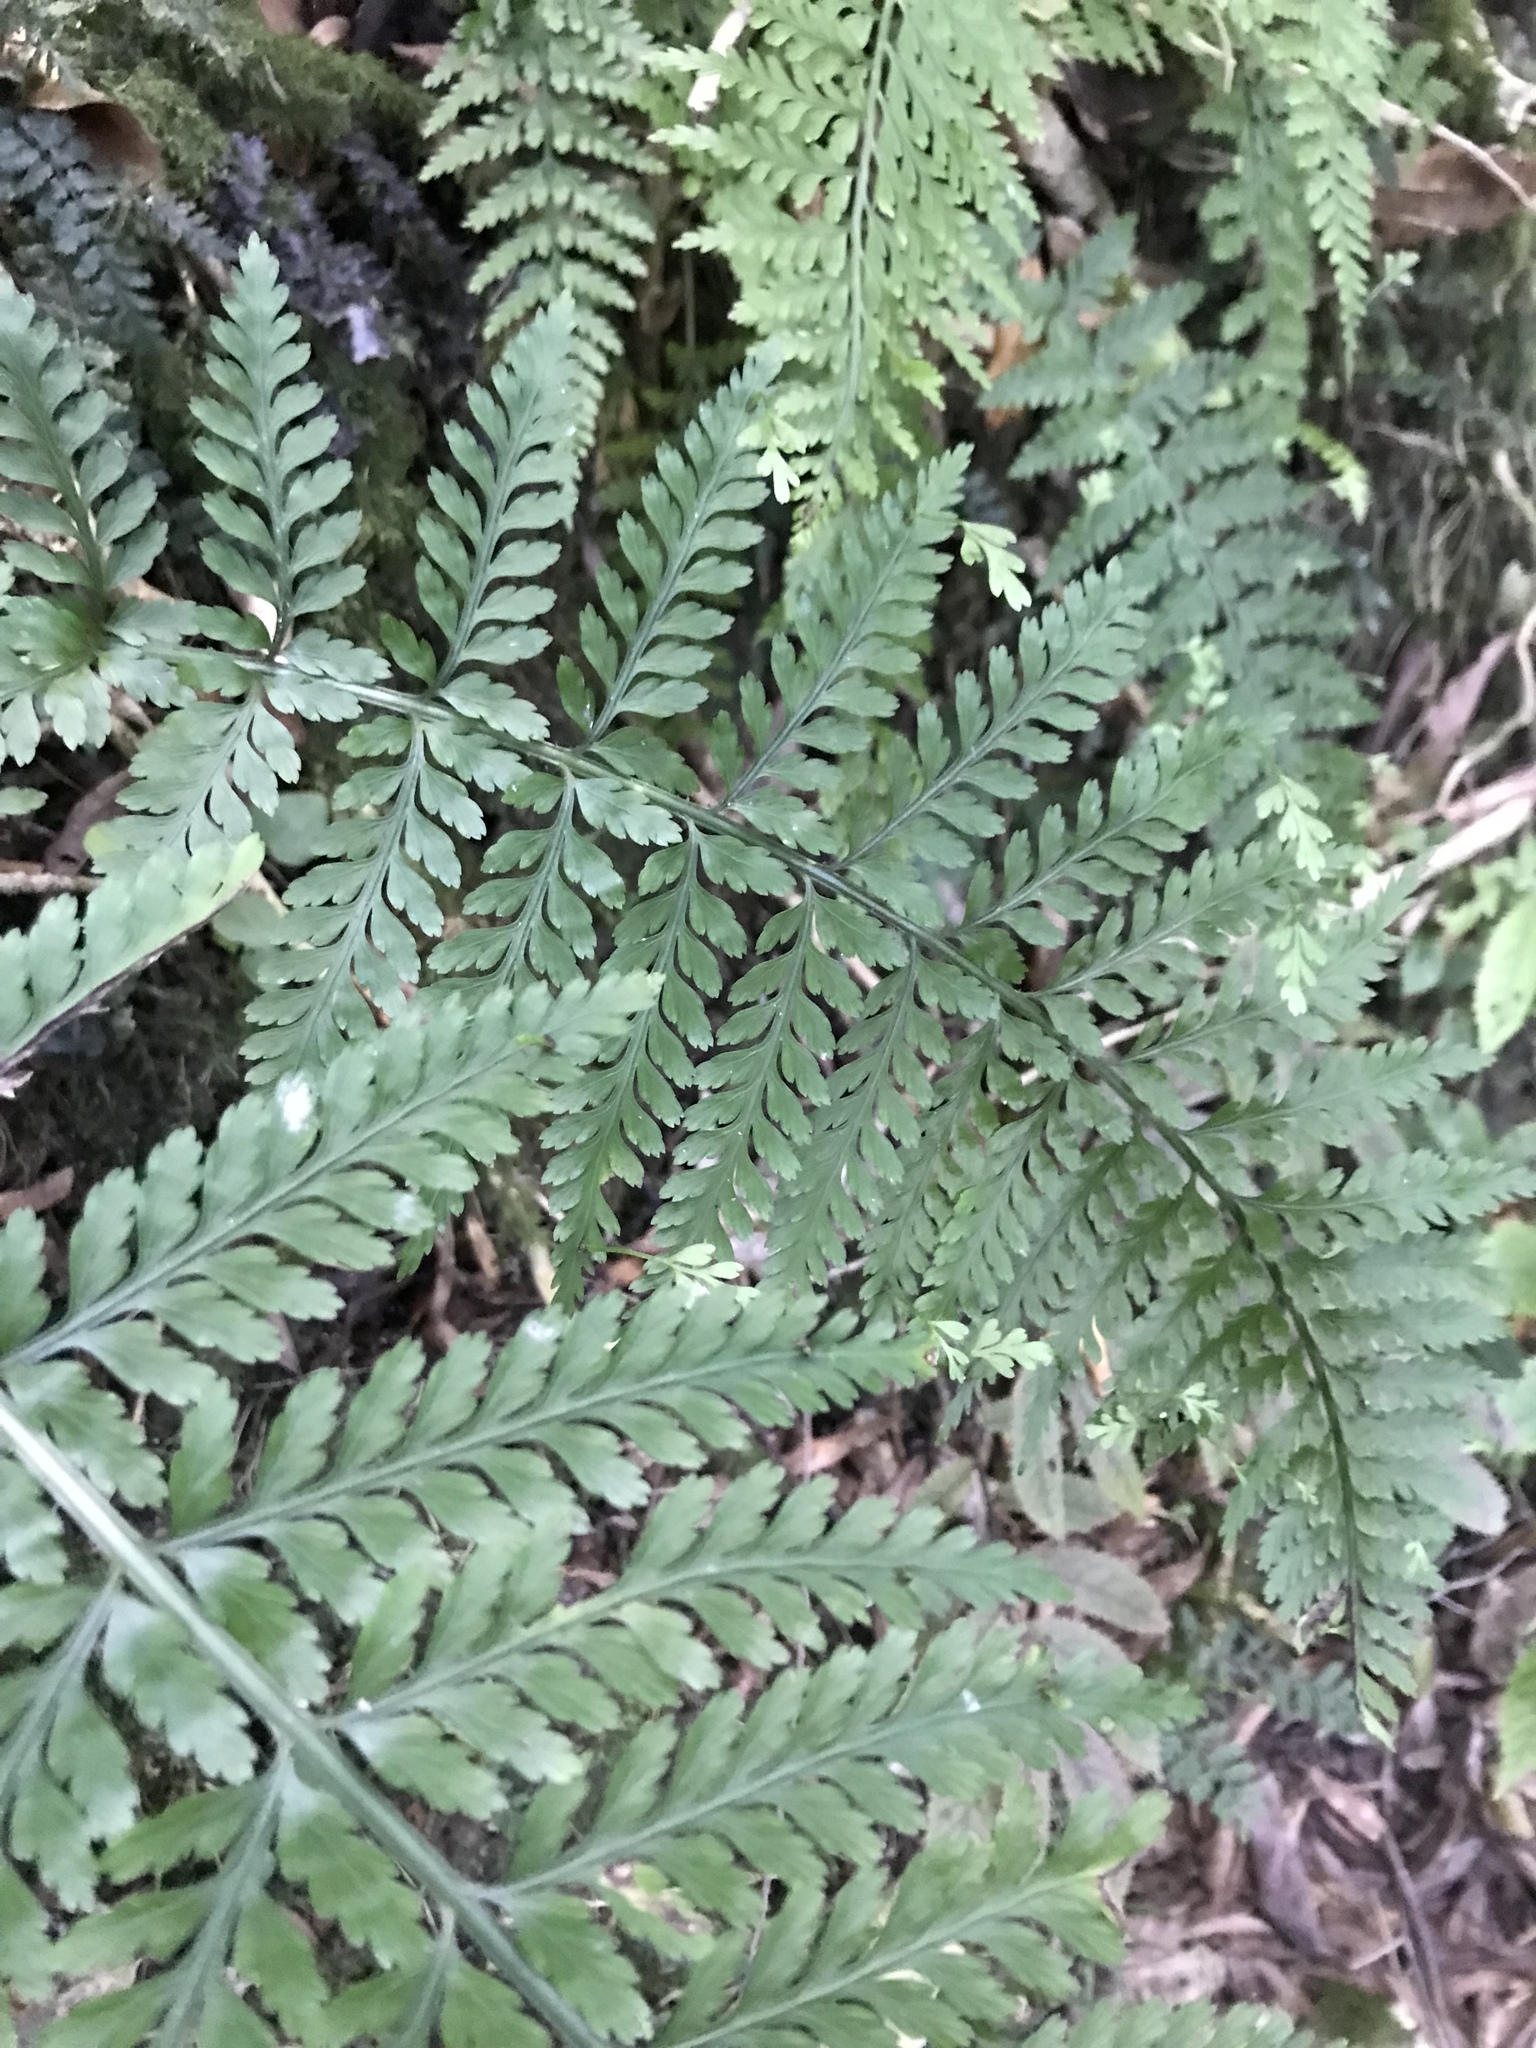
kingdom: Plantae
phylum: Tracheophyta
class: Polypodiopsida
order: Polypodiales
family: Aspleniaceae
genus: Asplenium
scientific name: Asplenium bulbiferum
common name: Mother fern
